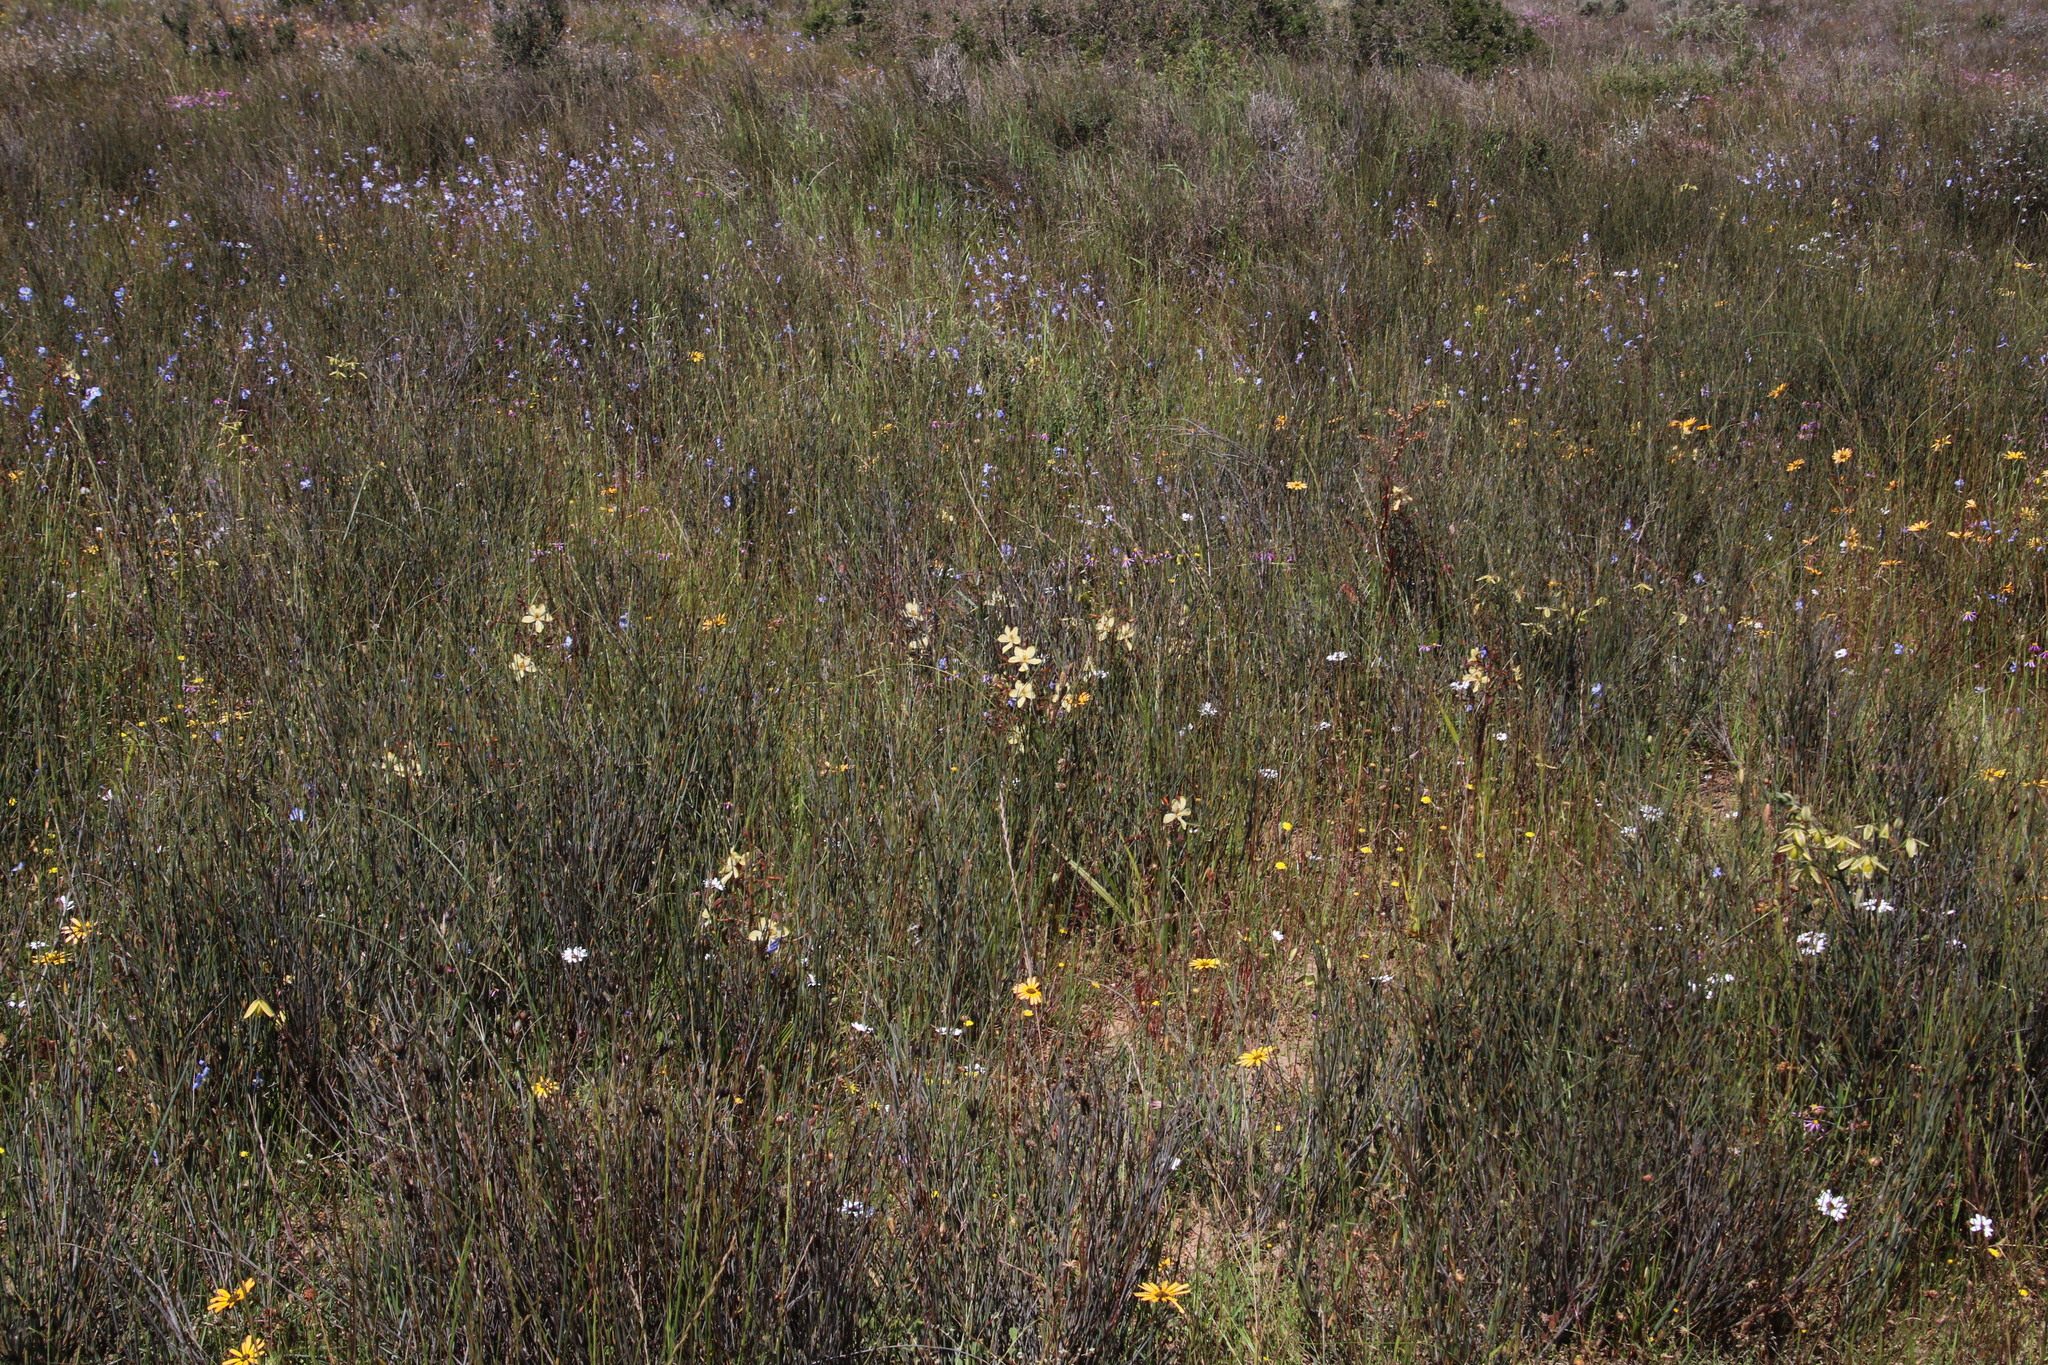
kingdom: Plantae
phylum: Tracheophyta
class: Liliopsida
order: Commelinales
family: Haemodoraceae
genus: Wachendorfia
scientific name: Wachendorfia paniculata
